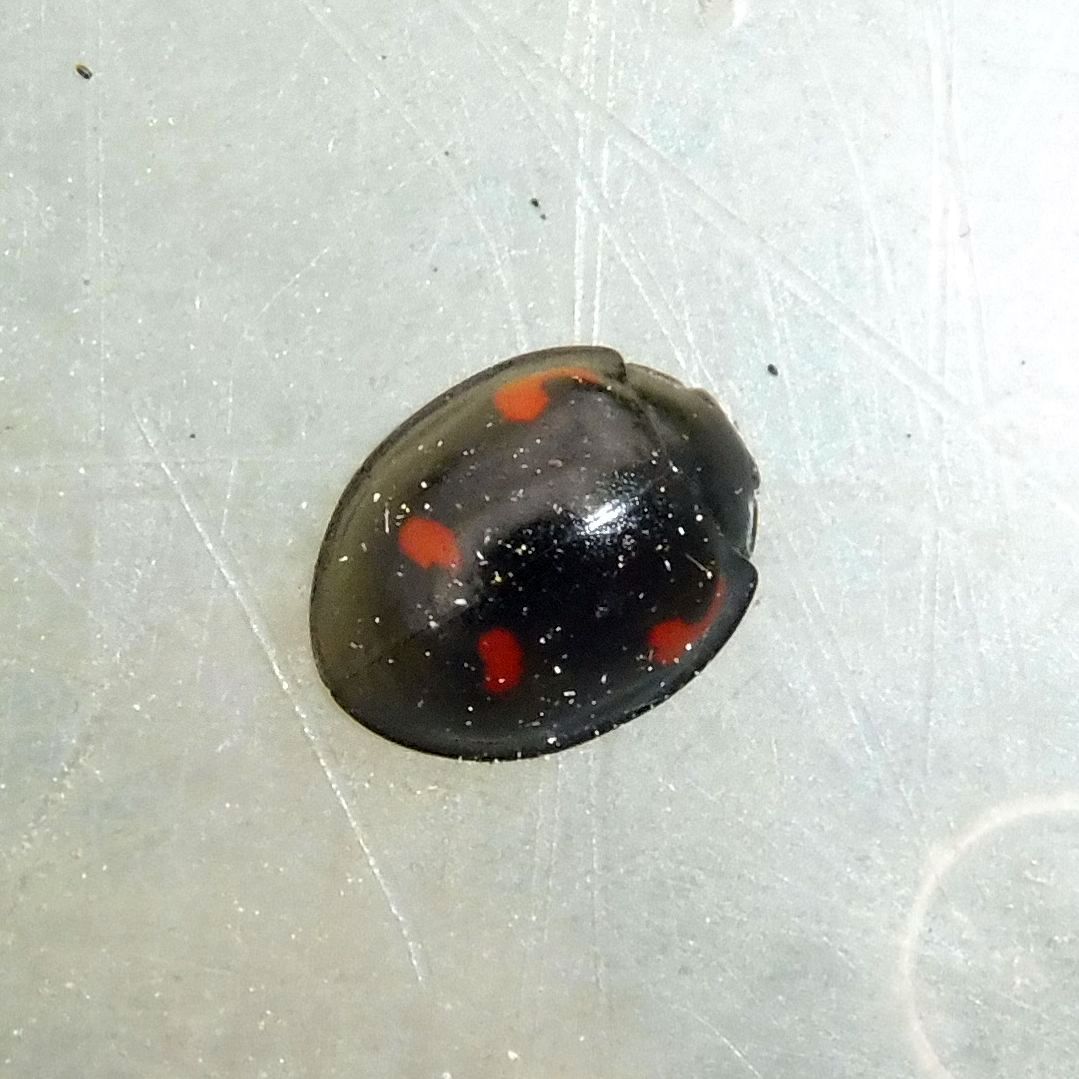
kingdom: Animalia
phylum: Arthropoda
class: Insecta
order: Coleoptera
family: Coccinellidae
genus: Brumus
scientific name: Brumus quadripustulatus
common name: Ladybird beetle
